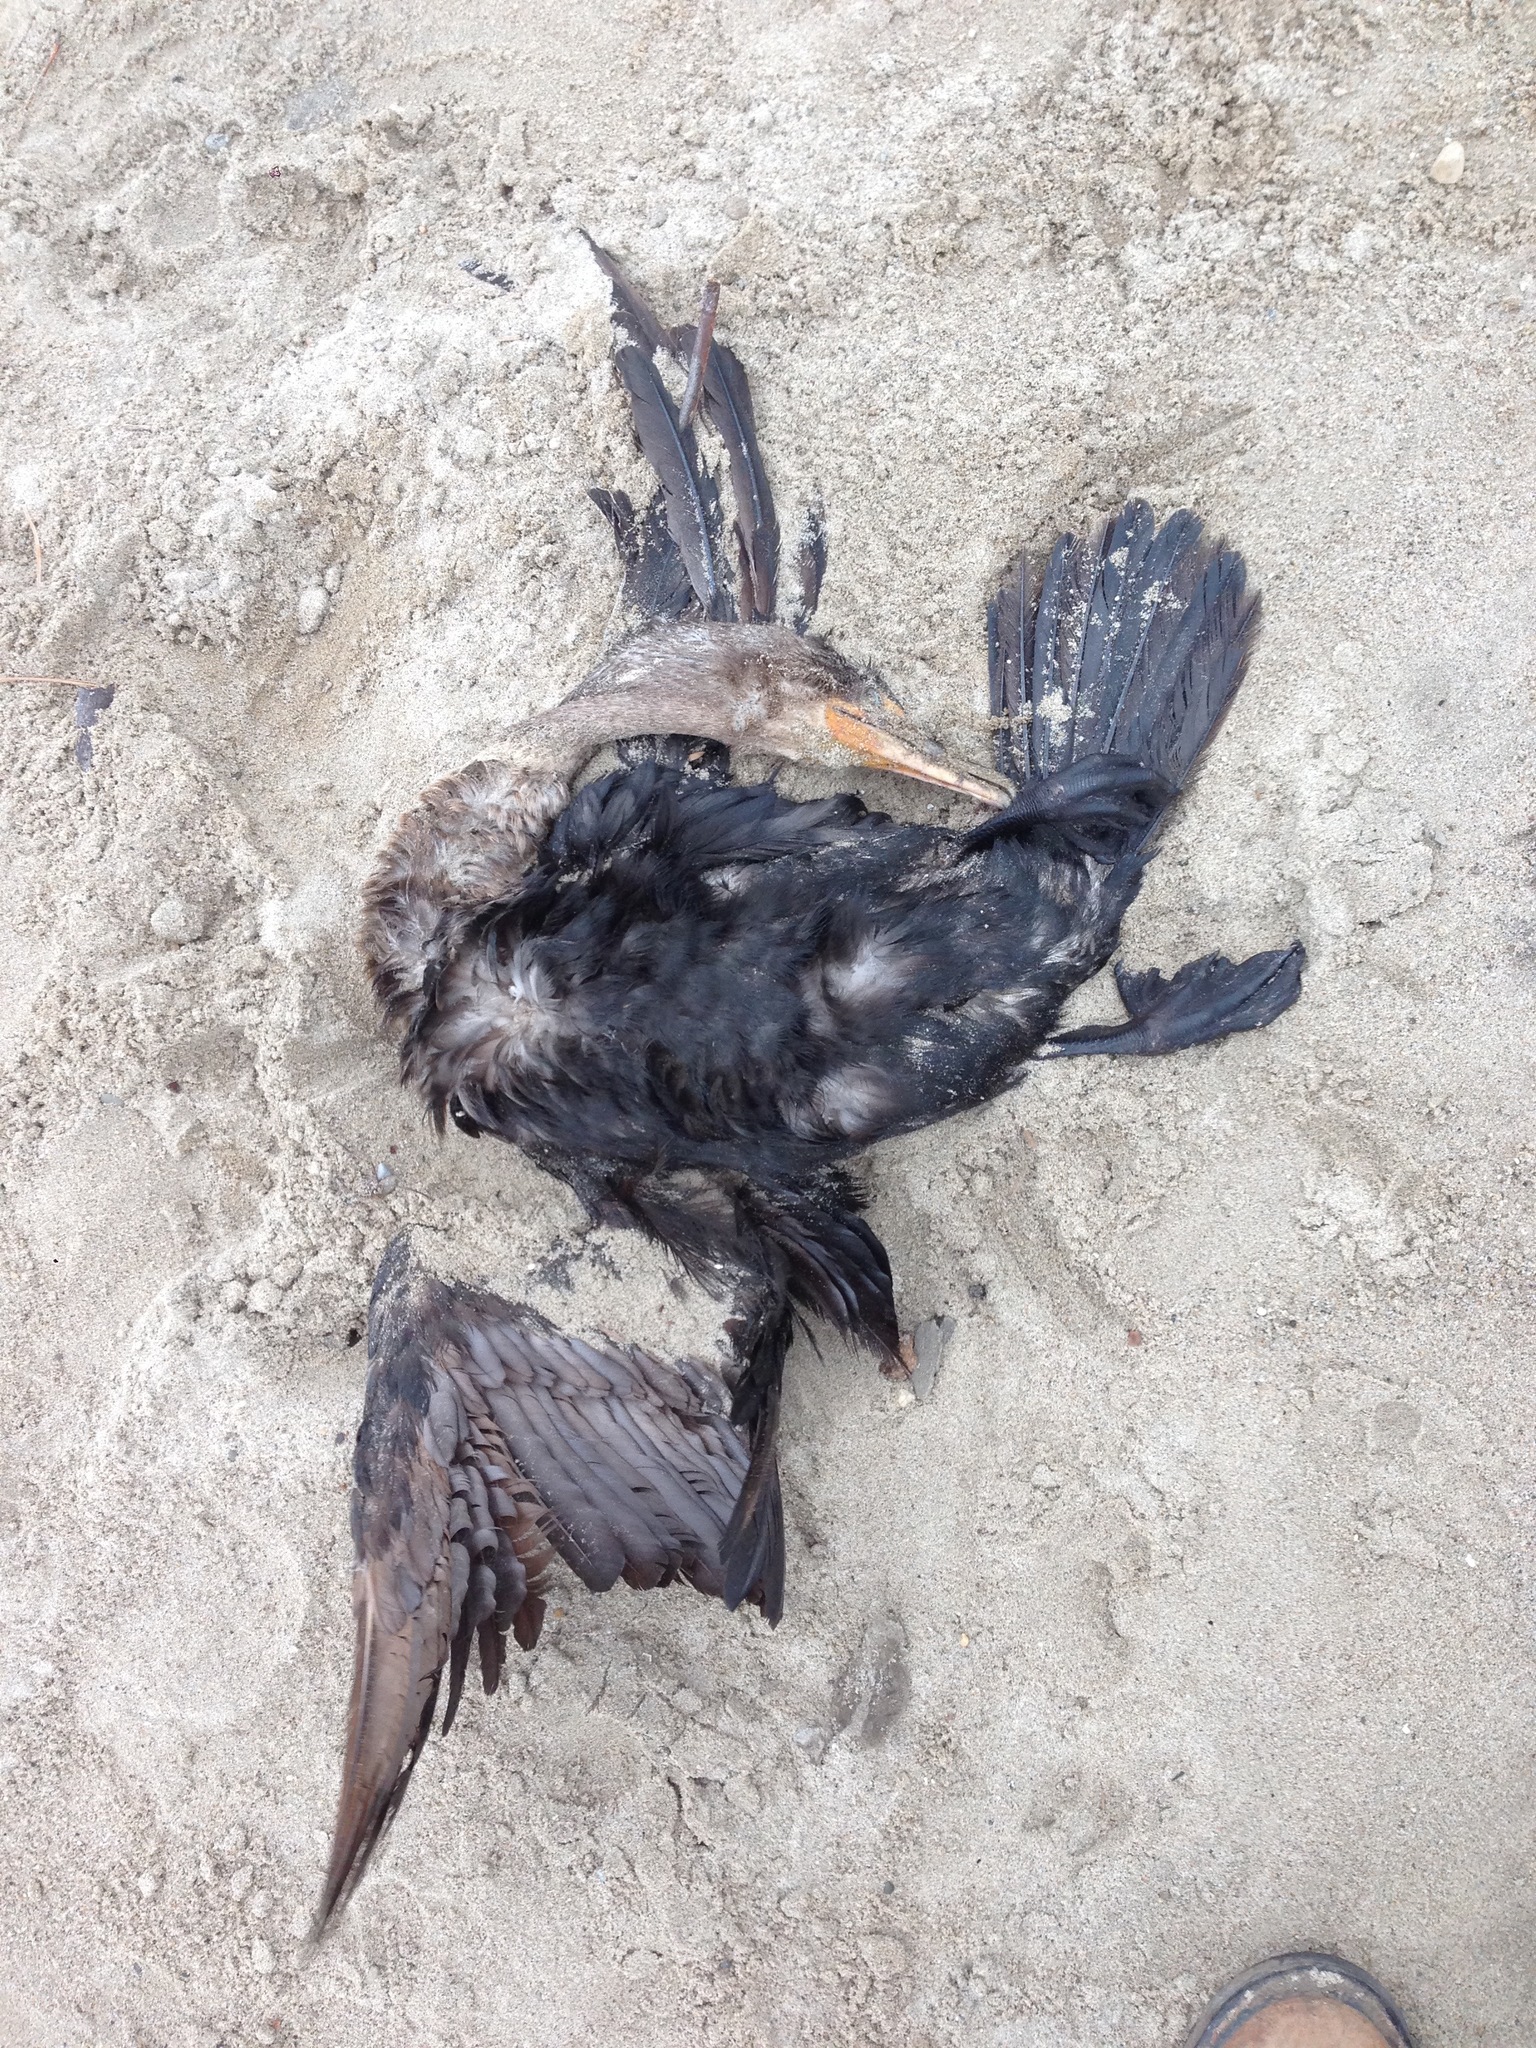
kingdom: Animalia
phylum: Chordata
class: Aves
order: Suliformes
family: Phalacrocoracidae
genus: Phalacrocorax
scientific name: Phalacrocorax auritus
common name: Double-crested cormorant
